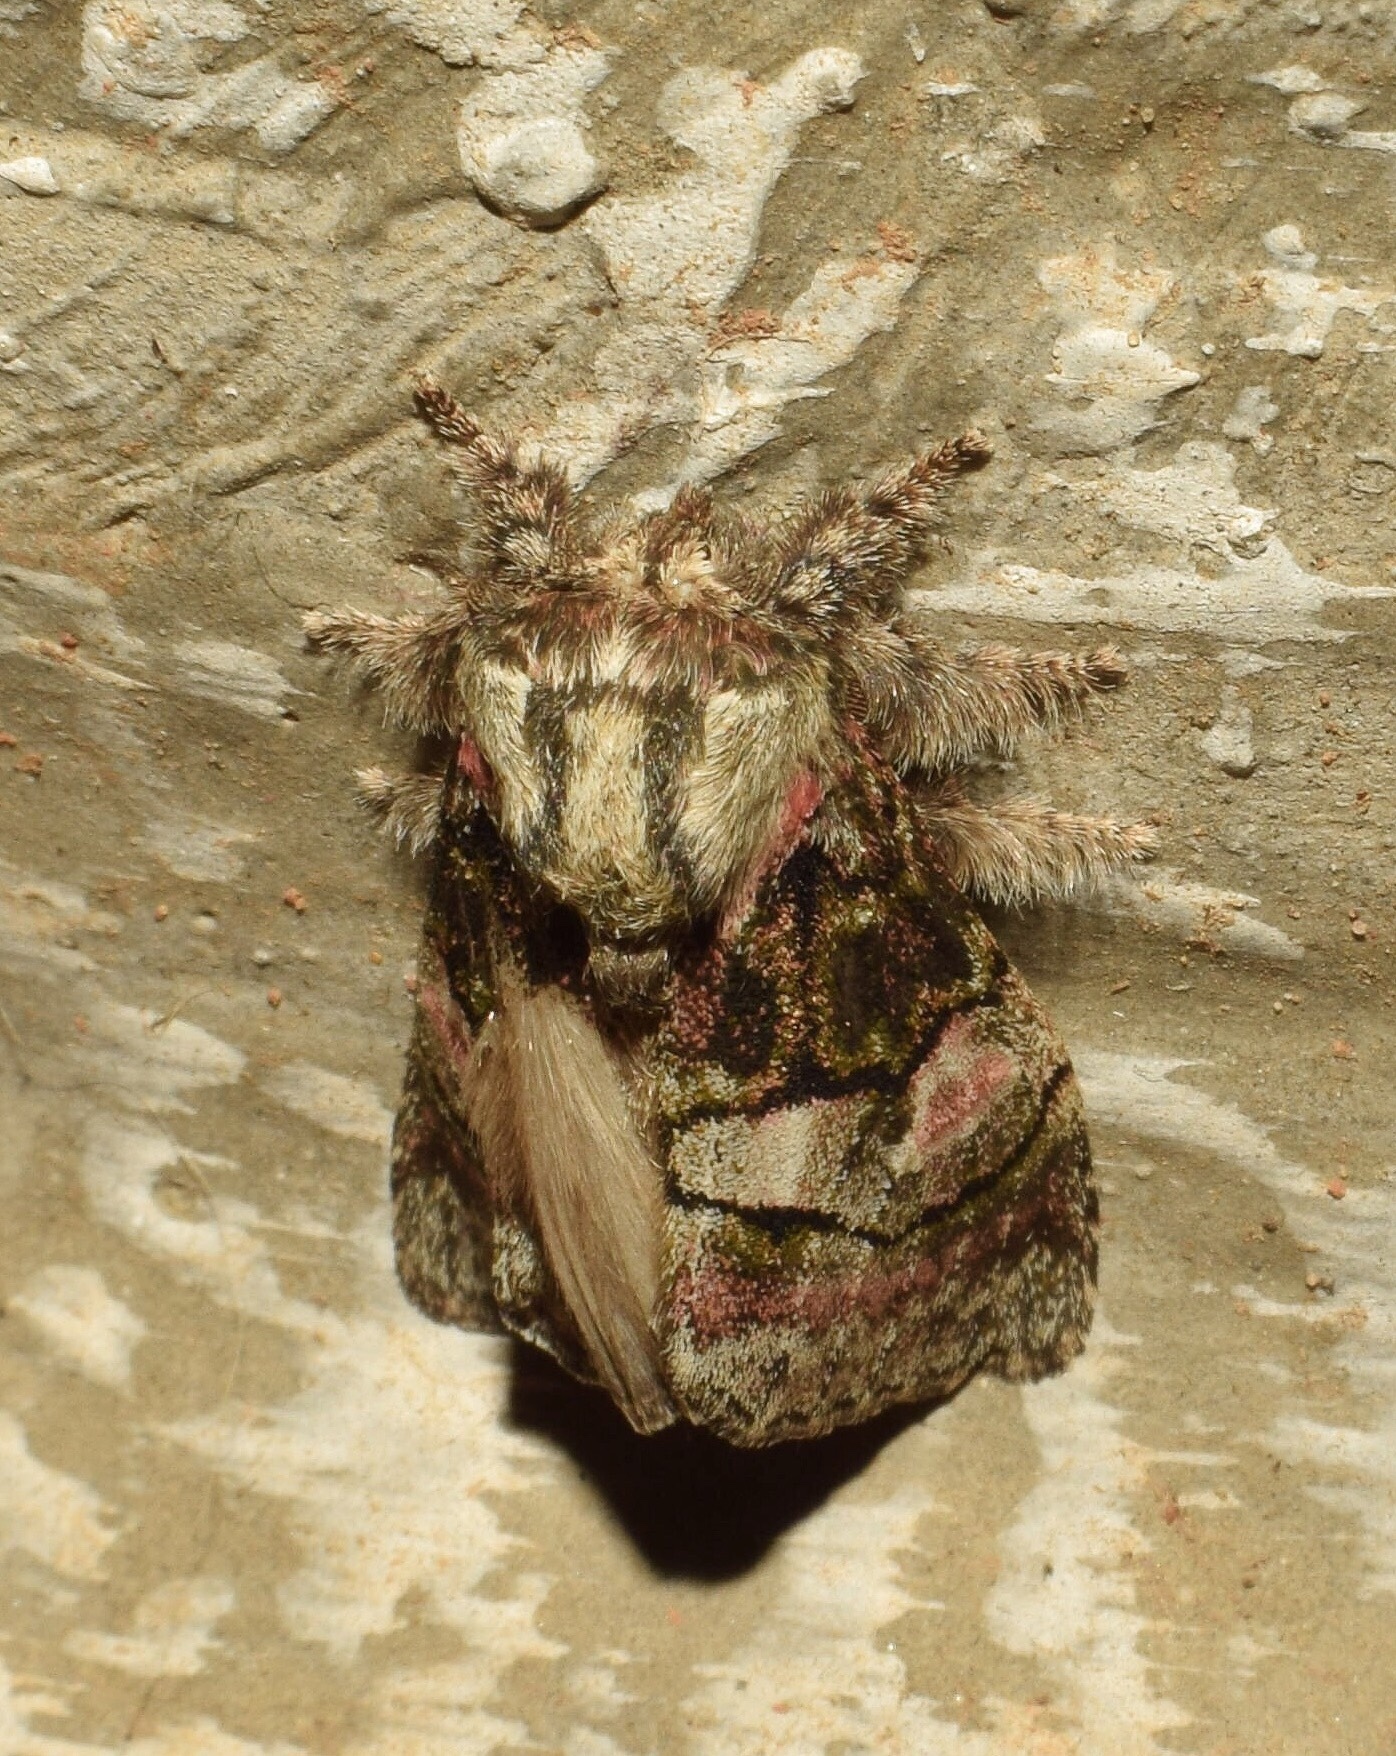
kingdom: Animalia
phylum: Arthropoda
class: Insecta
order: Lepidoptera
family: Notodontidae
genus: Rhenea
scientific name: Rhenea mediata
